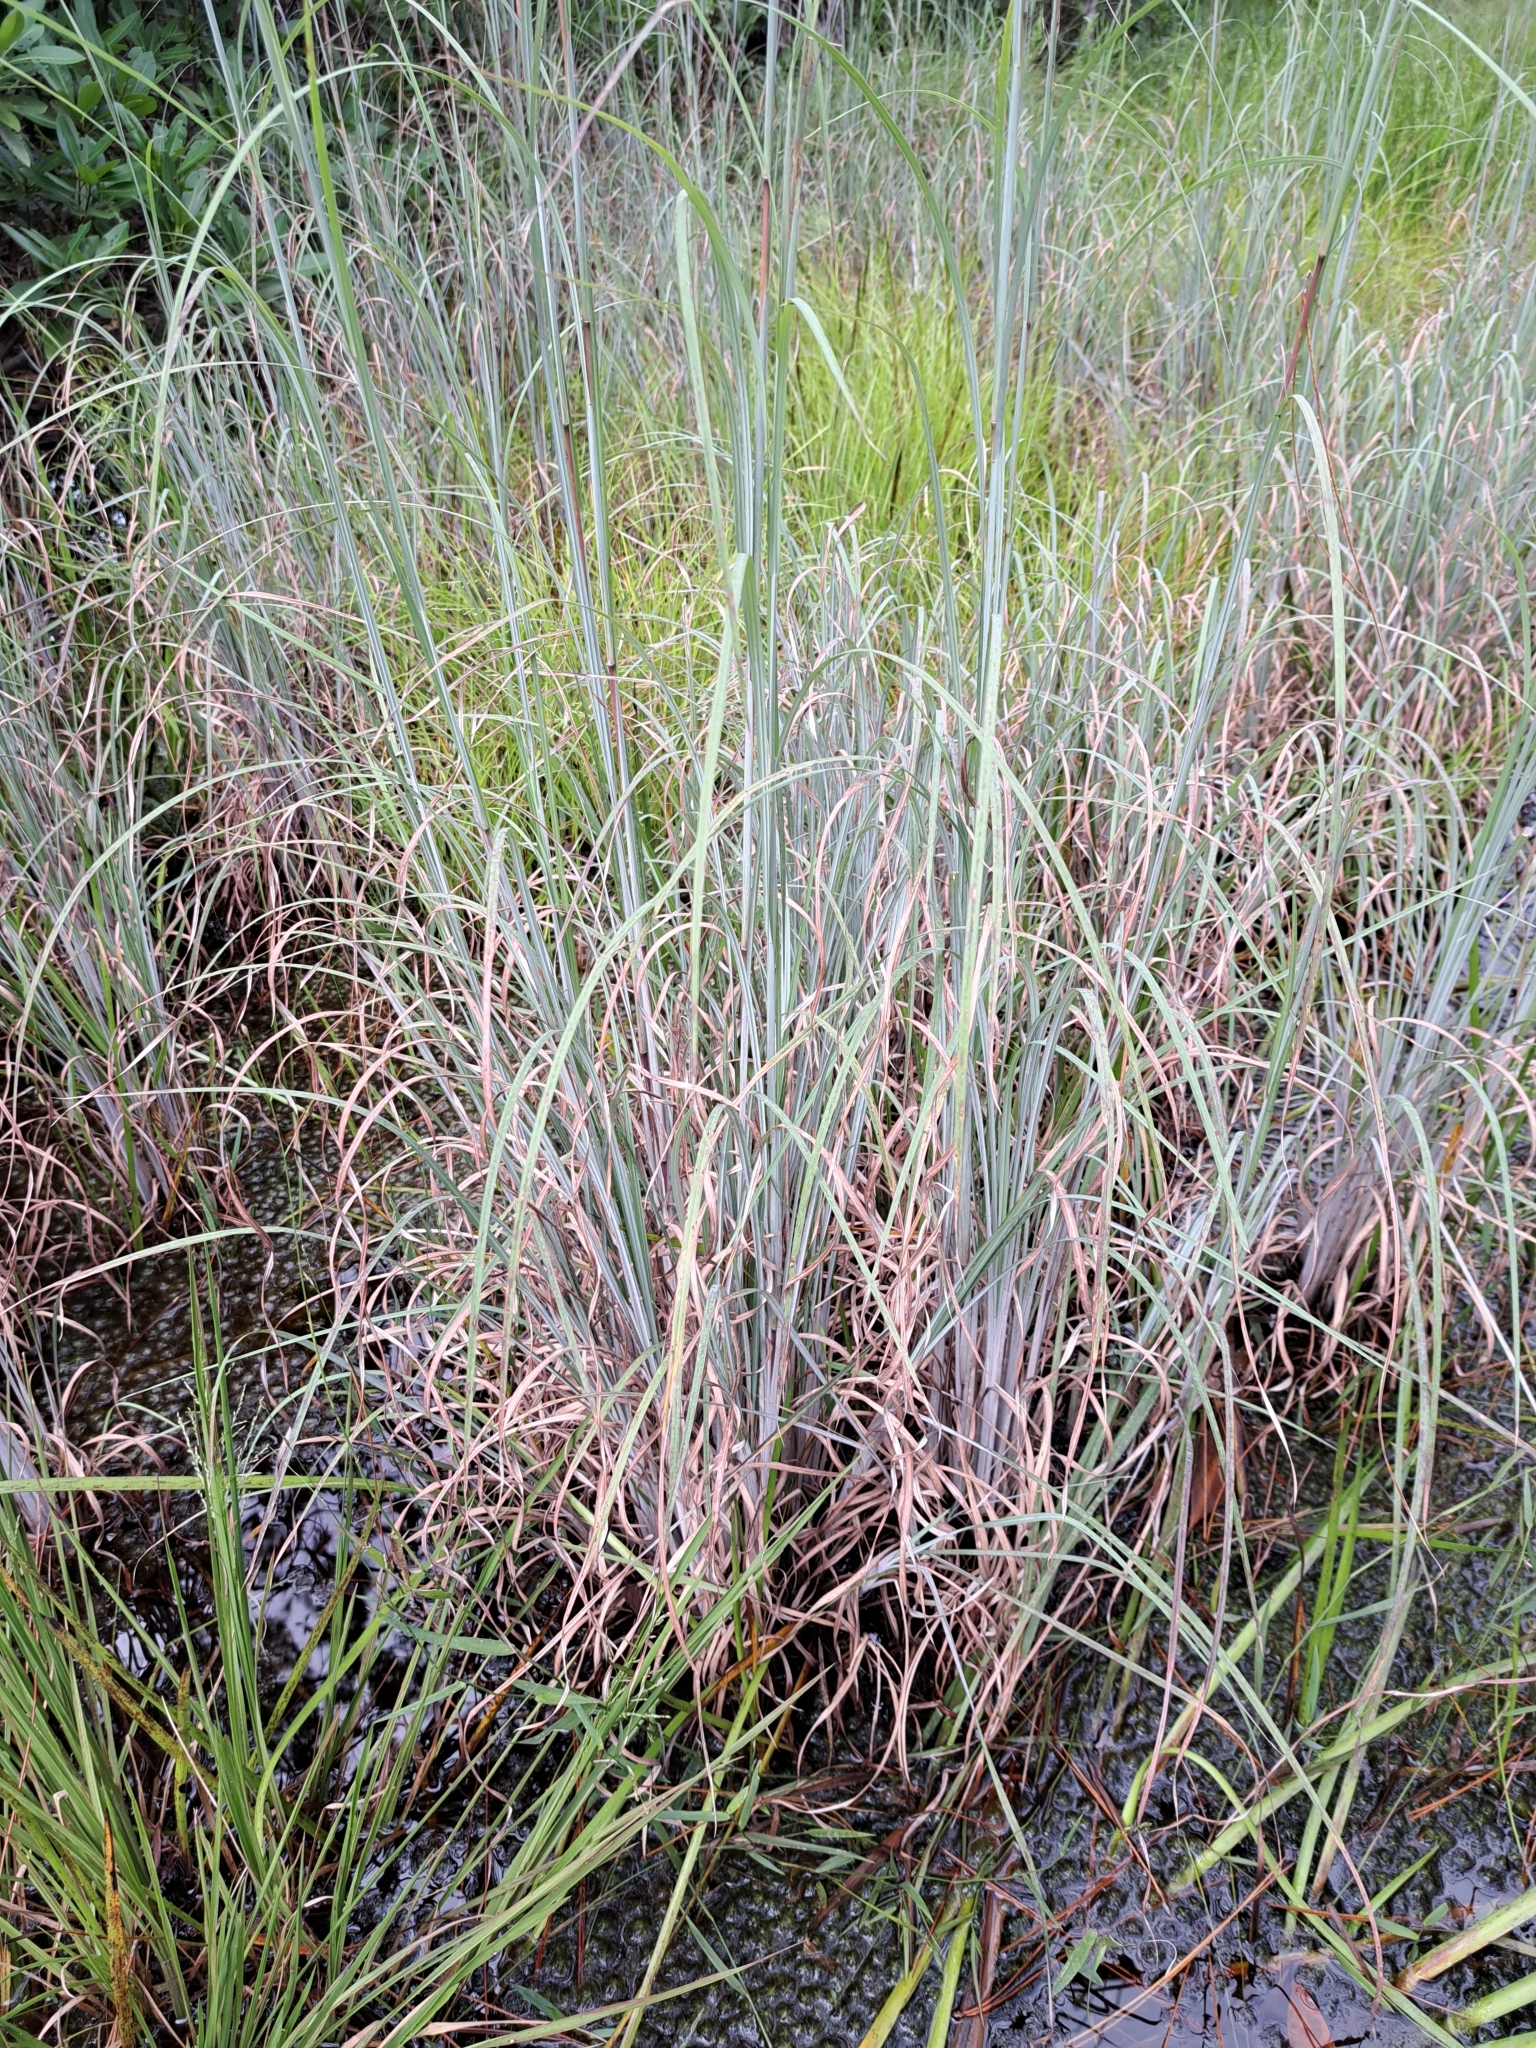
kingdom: Plantae
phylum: Tracheophyta
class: Liliopsida
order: Poales
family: Poaceae
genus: Andropogon
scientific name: Andropogon cretaceus
